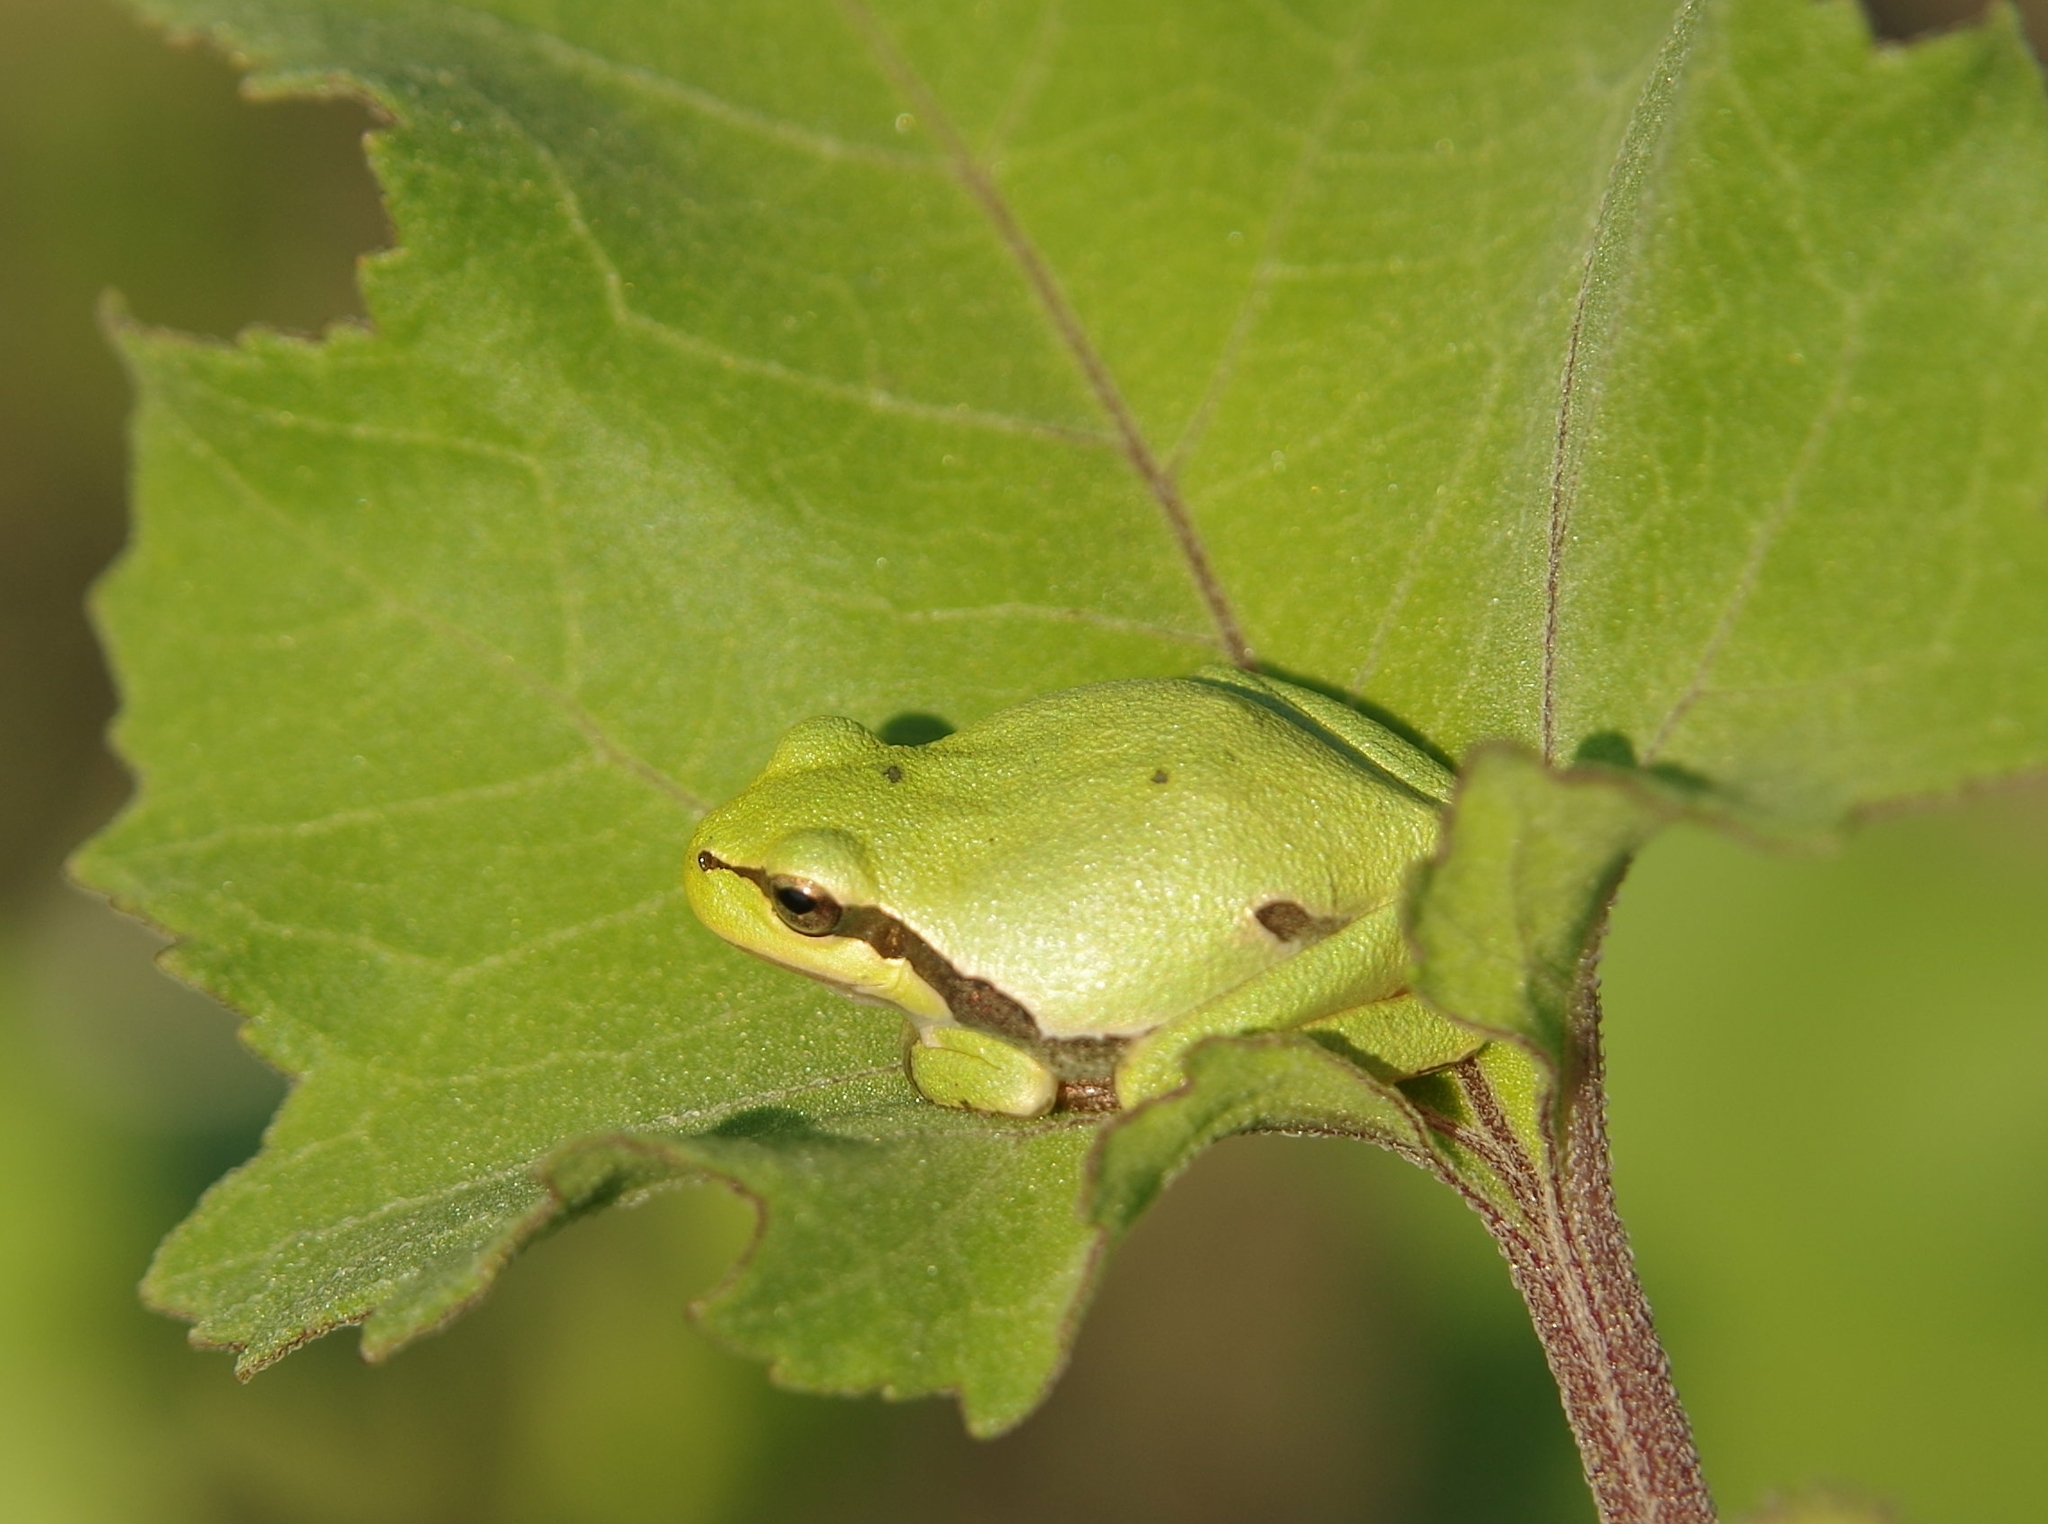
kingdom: Animalia
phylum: Chordata
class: Amphibia
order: Anura
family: Hylidae
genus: Hyla
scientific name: Hyla orientalis
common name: Caucasian treefrog
